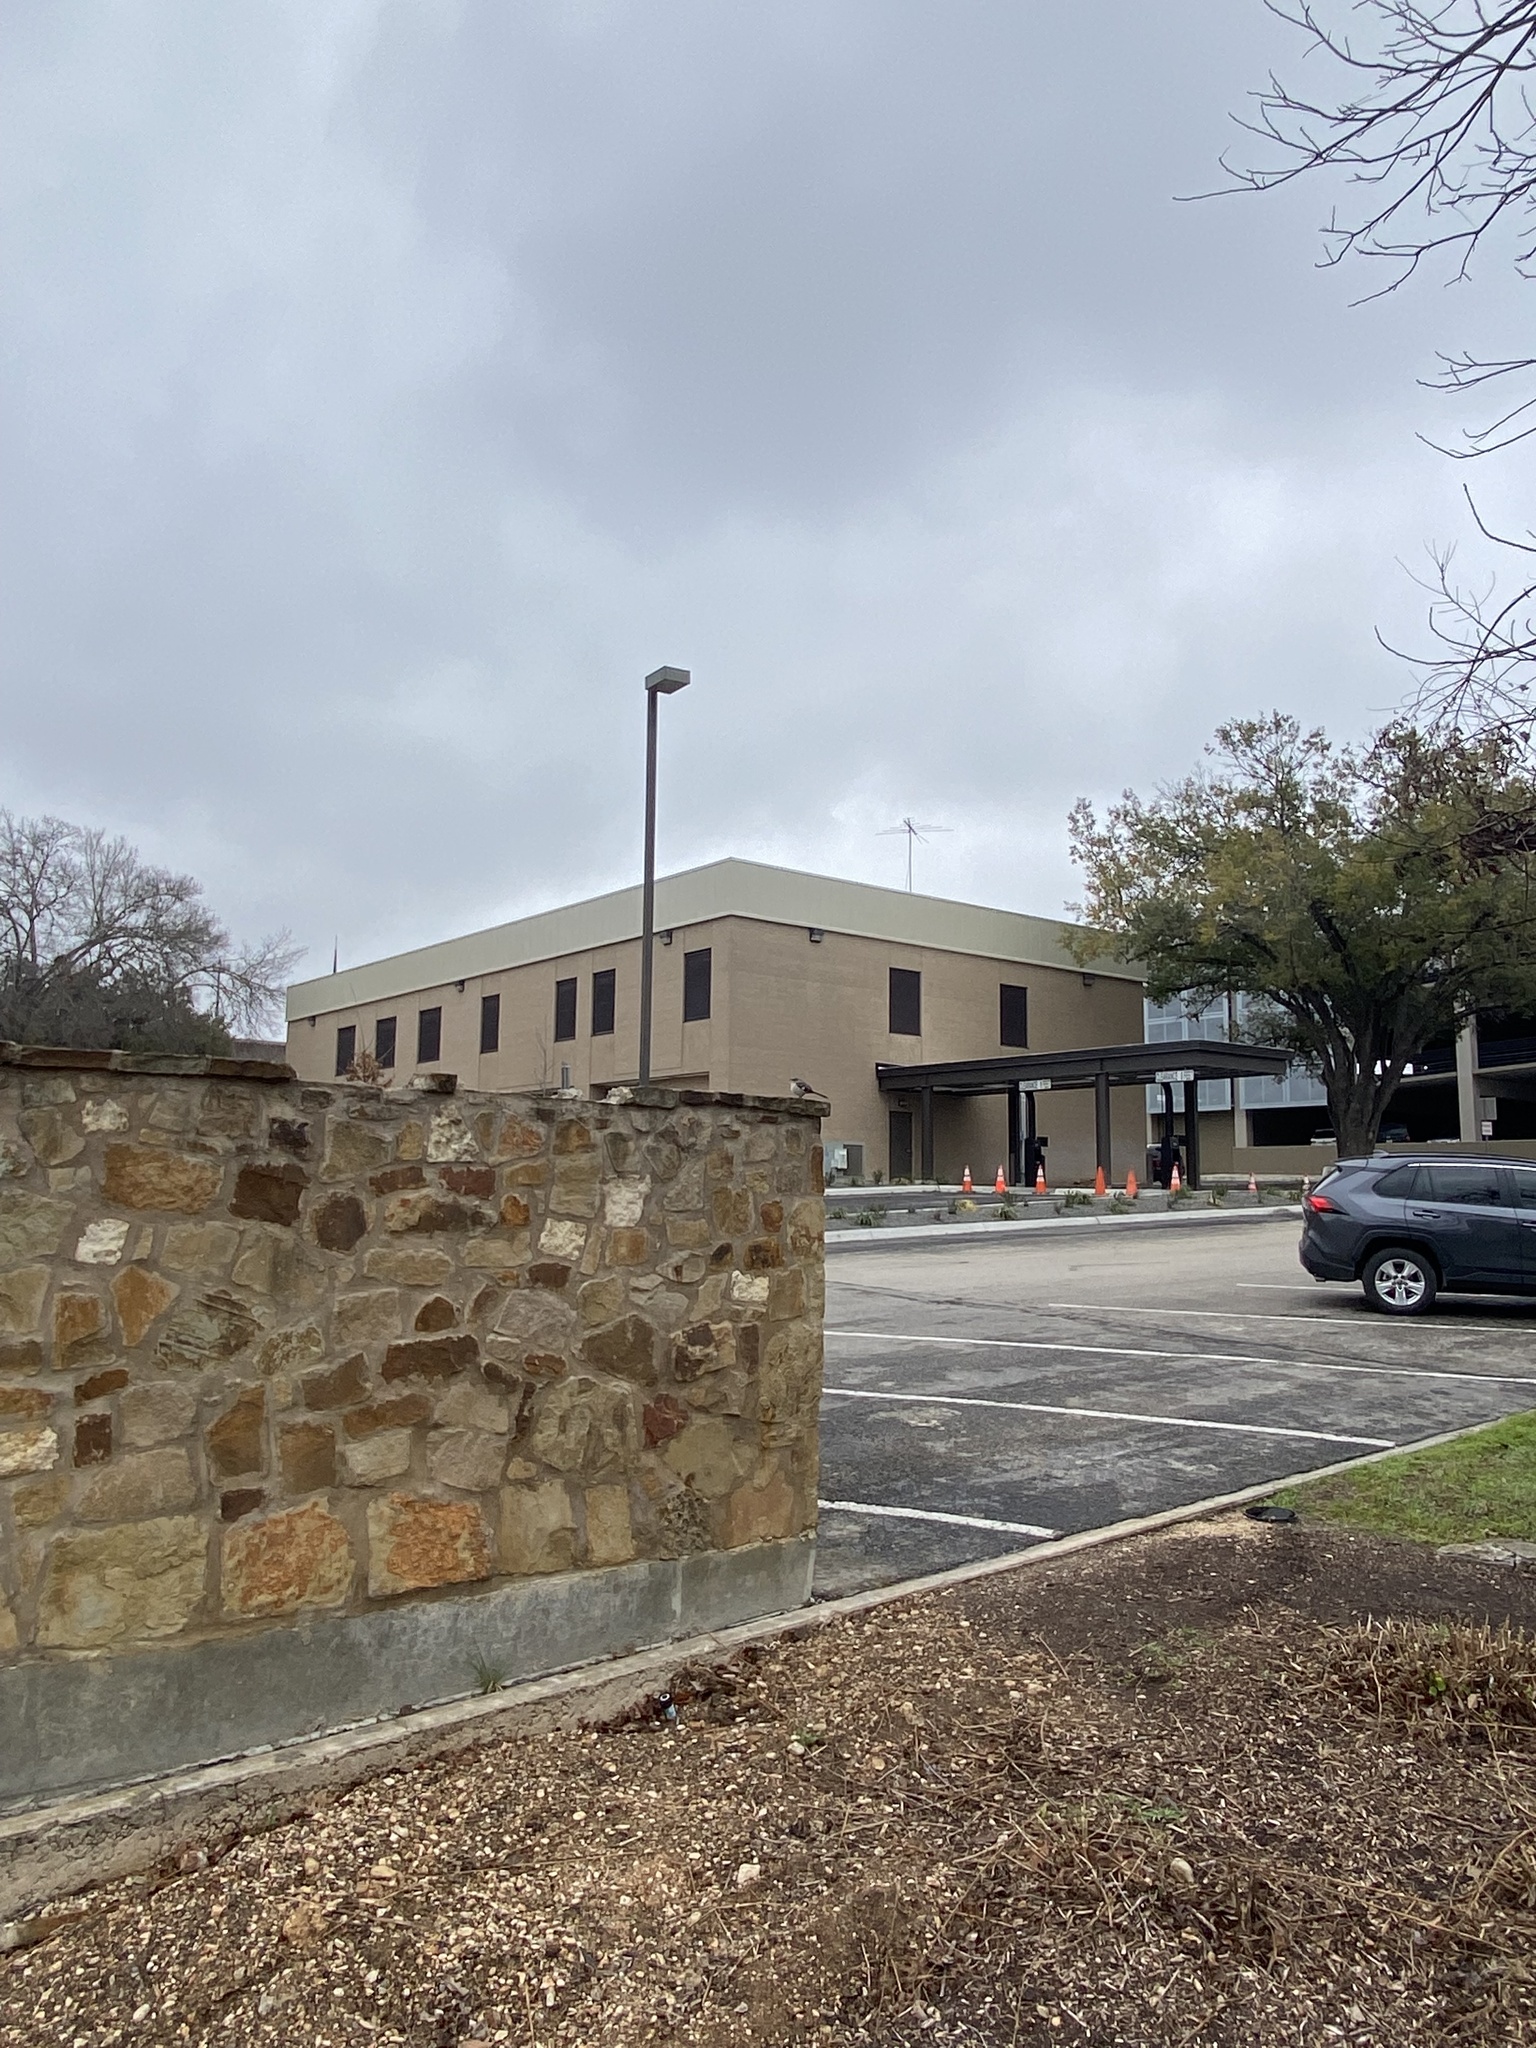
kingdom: Animalia
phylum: Chordata
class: Aves
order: Passeriformes
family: Mimidae
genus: Mimus
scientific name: Mimus polyglottos
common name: Northern mockingbird
